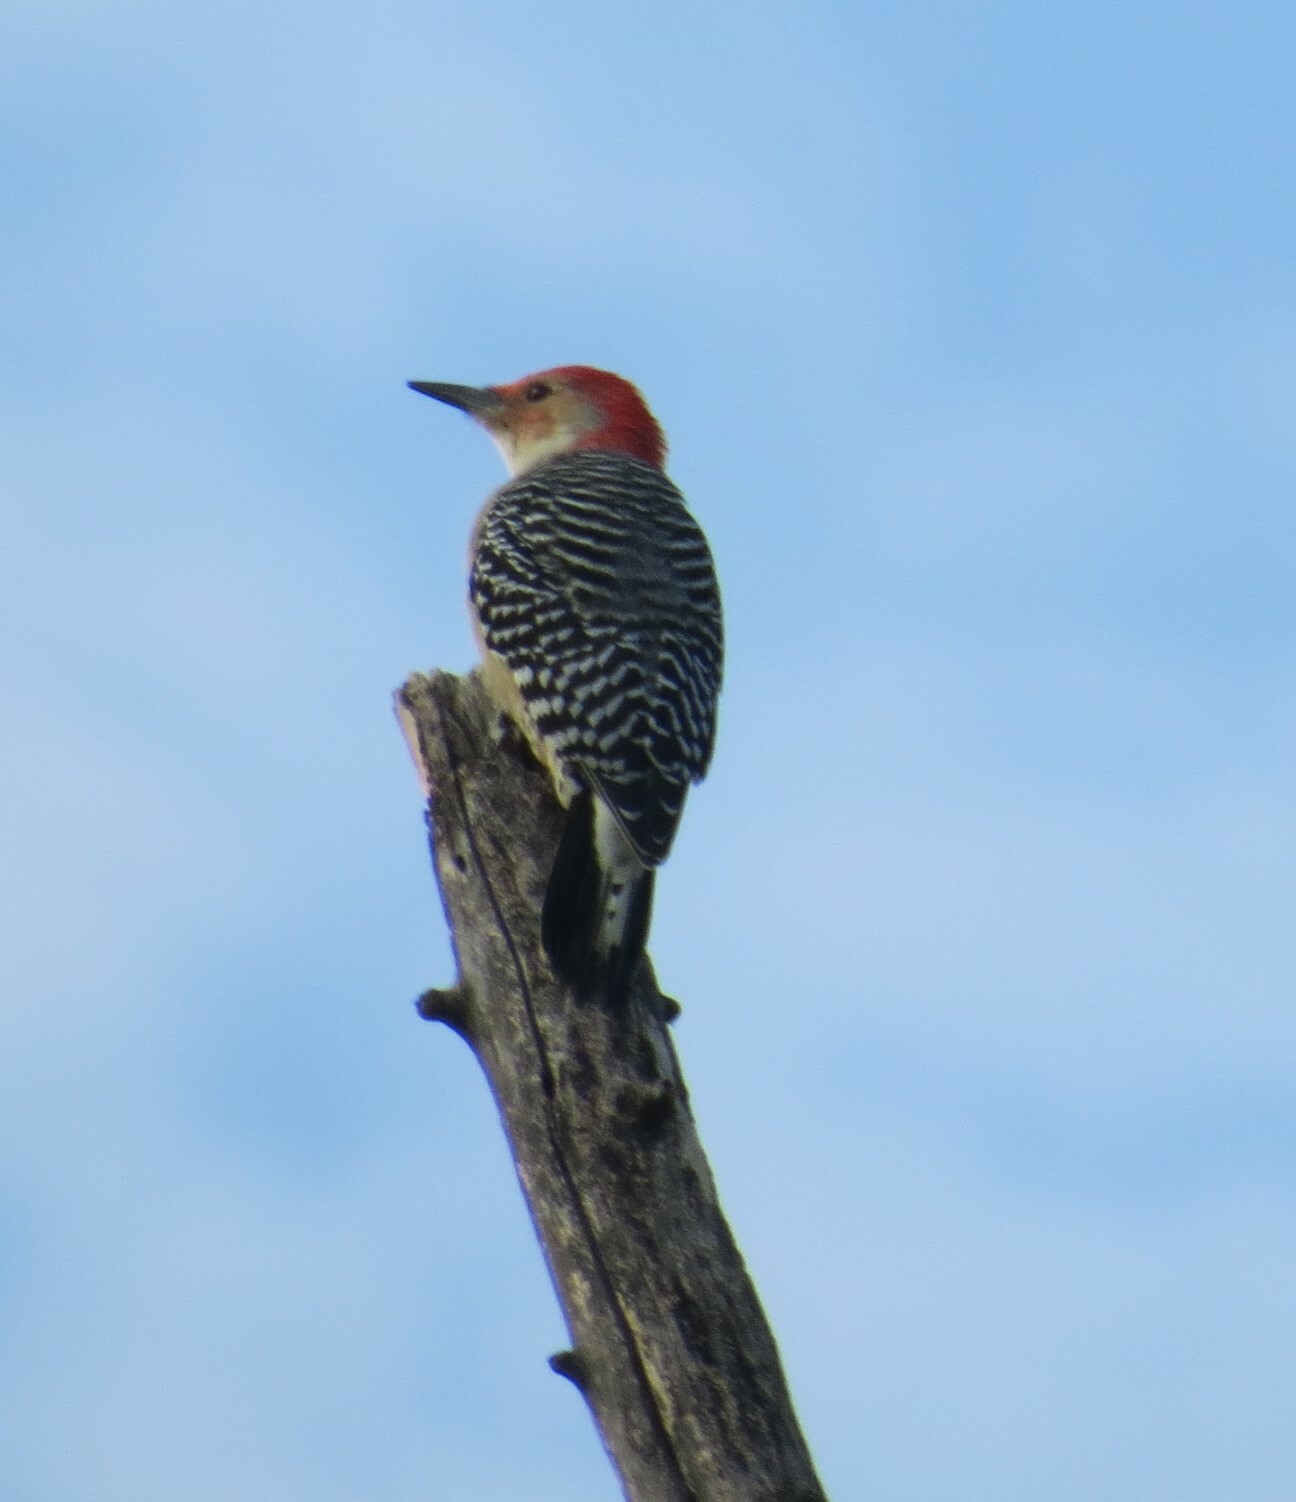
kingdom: Animalia
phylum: Chordata
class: Aves
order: Piciformes
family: Picidae
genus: Melanerpes
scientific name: Melanerpes carolinus
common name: Red-bellied woodpecker
